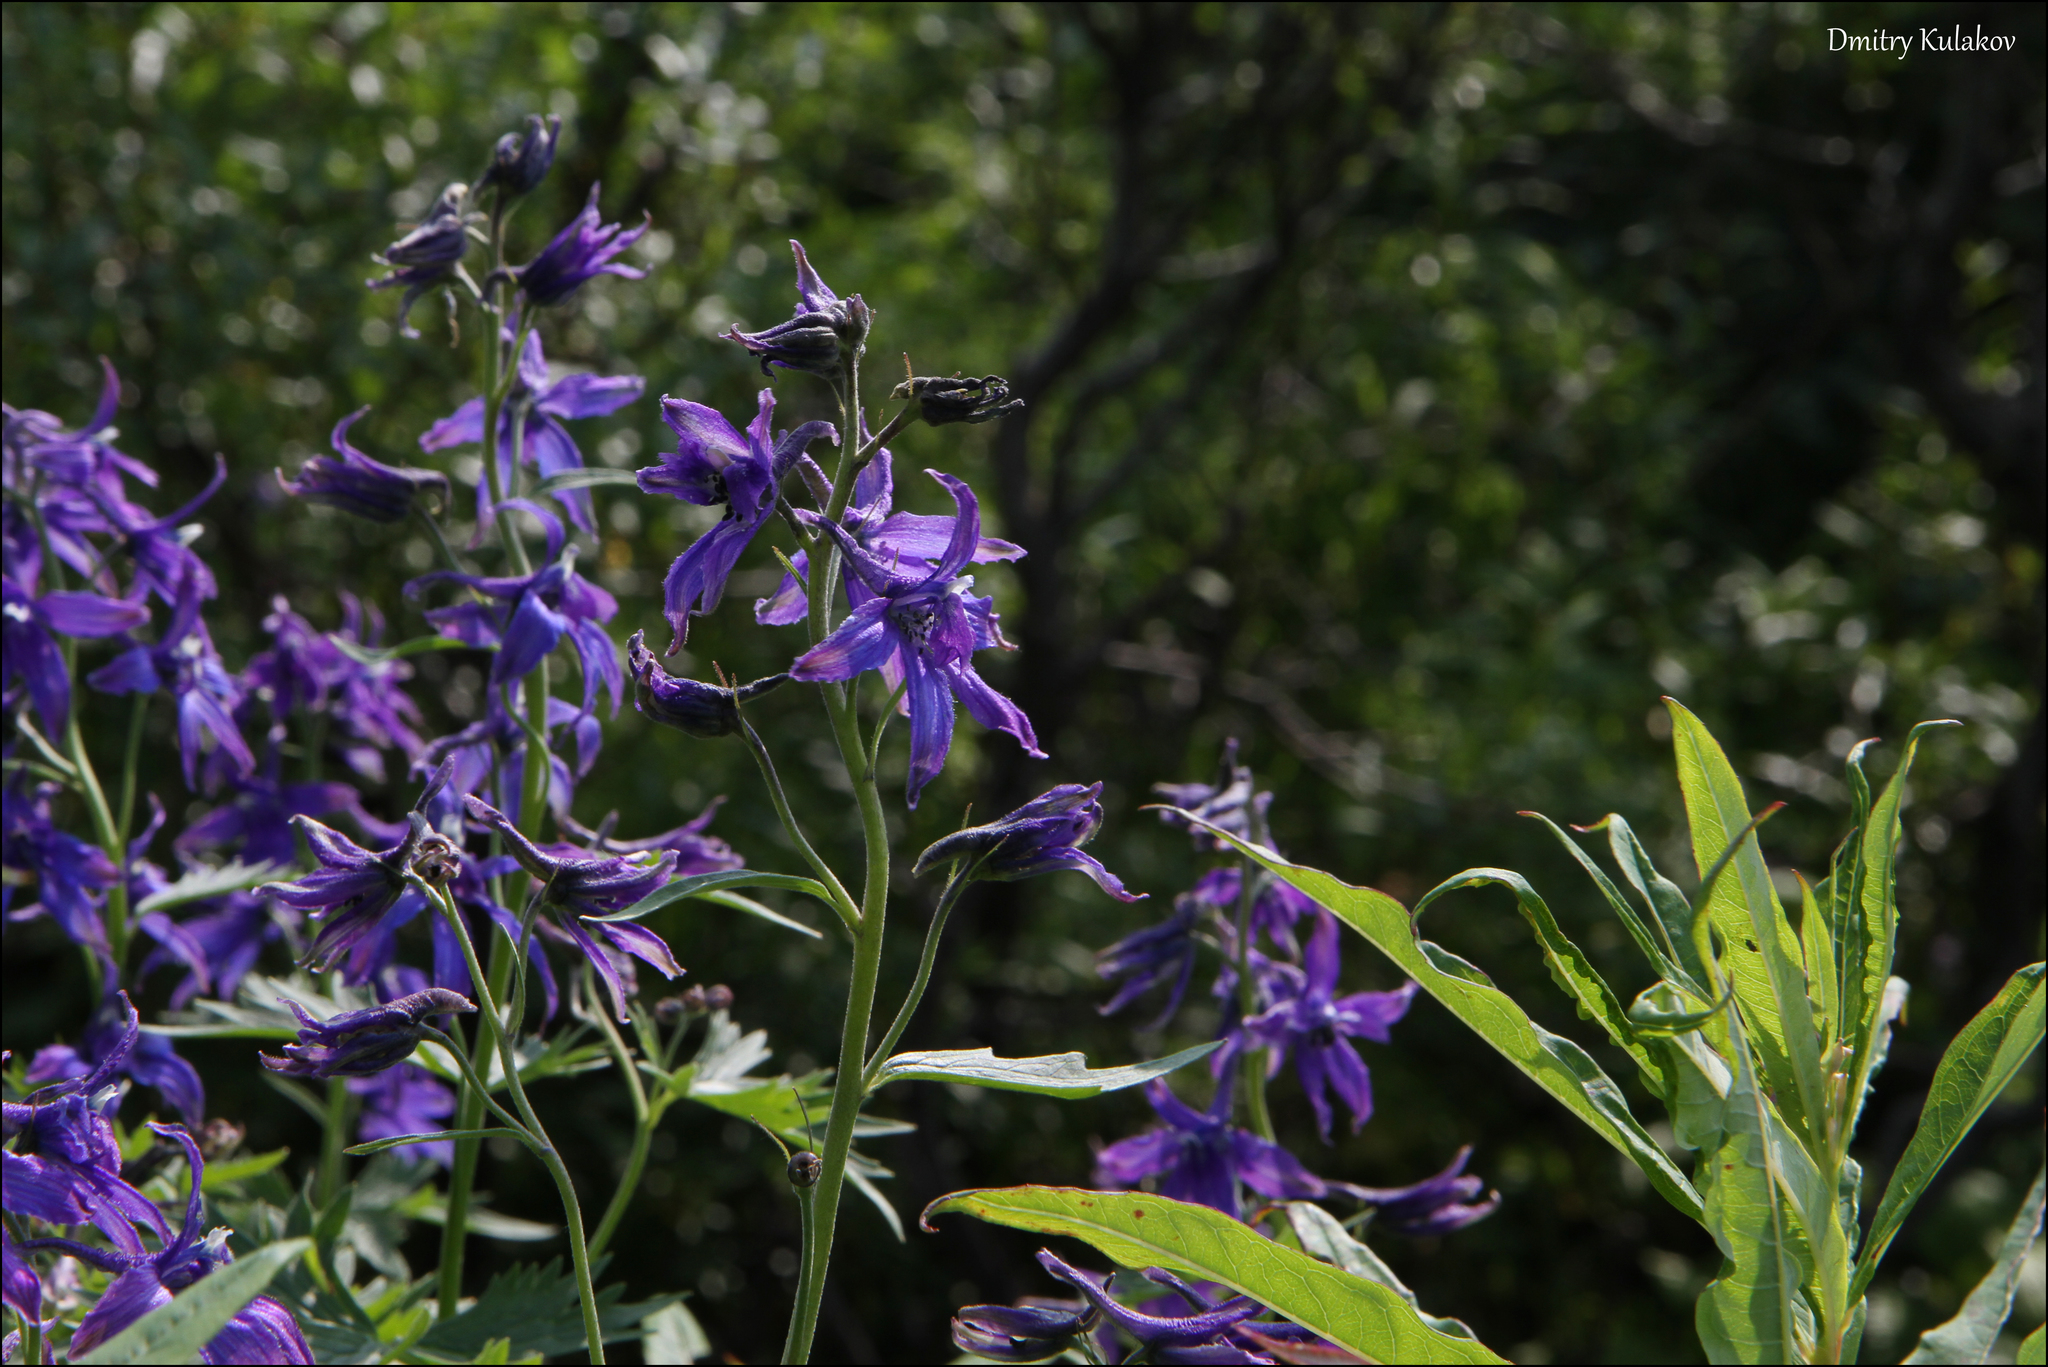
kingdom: Plantae
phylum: Tracheophyta
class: Magnoliopsida
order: Ranunculales
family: Ranunculaceae
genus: Delphinium
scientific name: Delphinium brachycentrum
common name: Arctic larkspur
